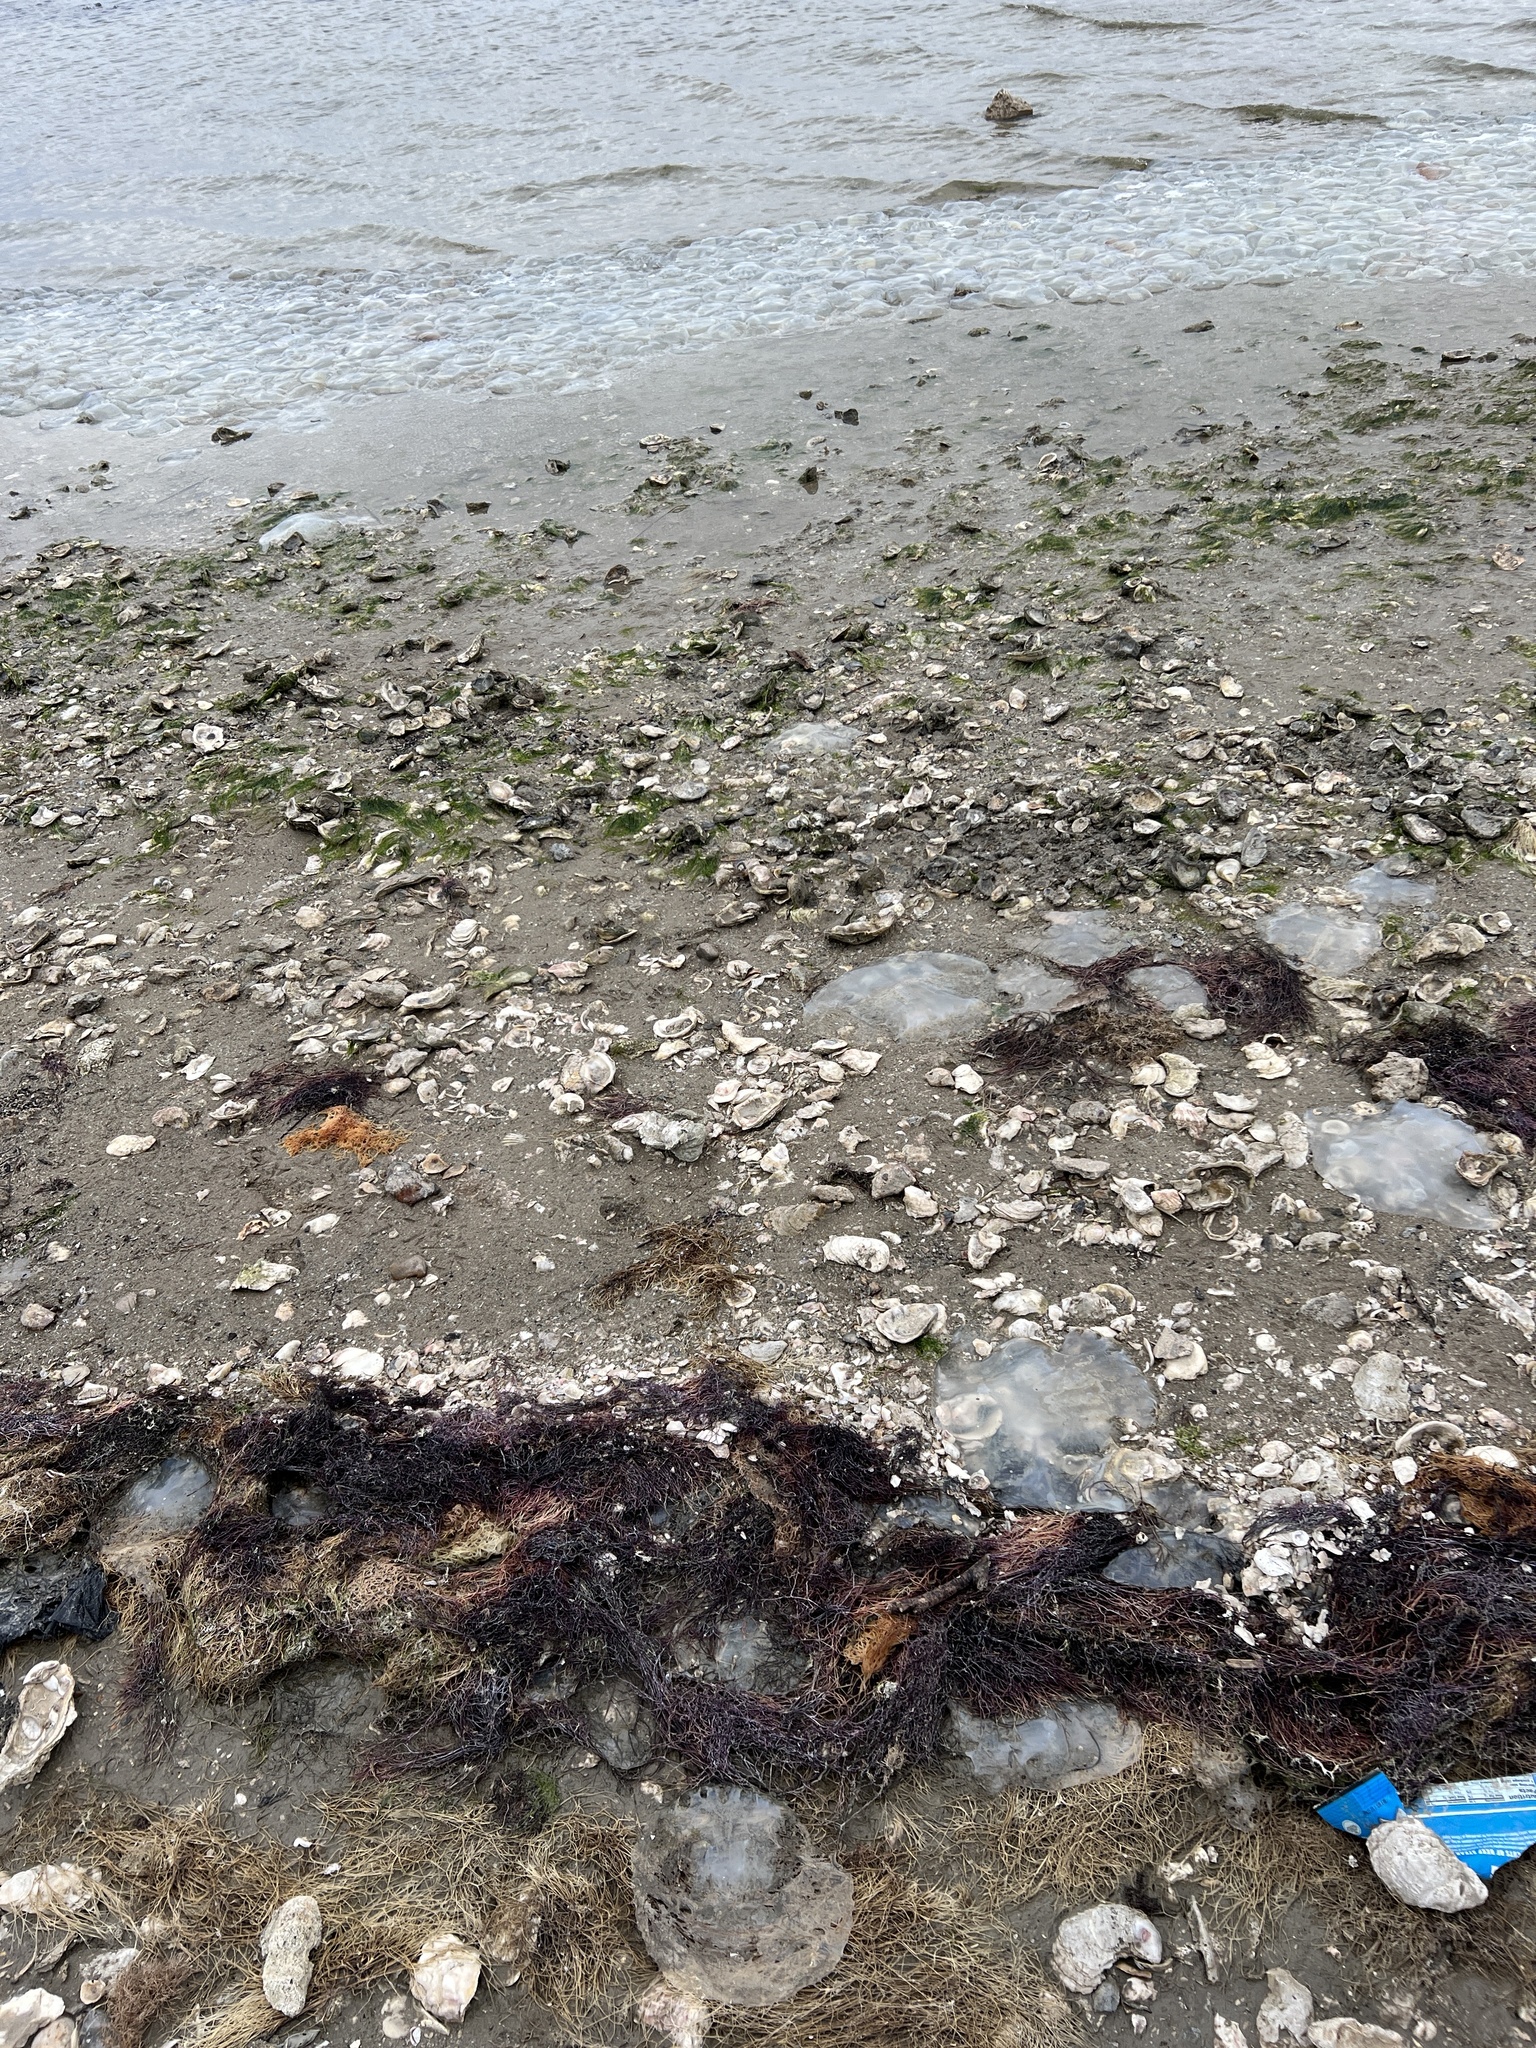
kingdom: Animalia
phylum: Mollusca
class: Bivalvia
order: Ostreida
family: Ostreidae
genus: Crassostrea
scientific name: Crassostrea virginica
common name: American oyster
